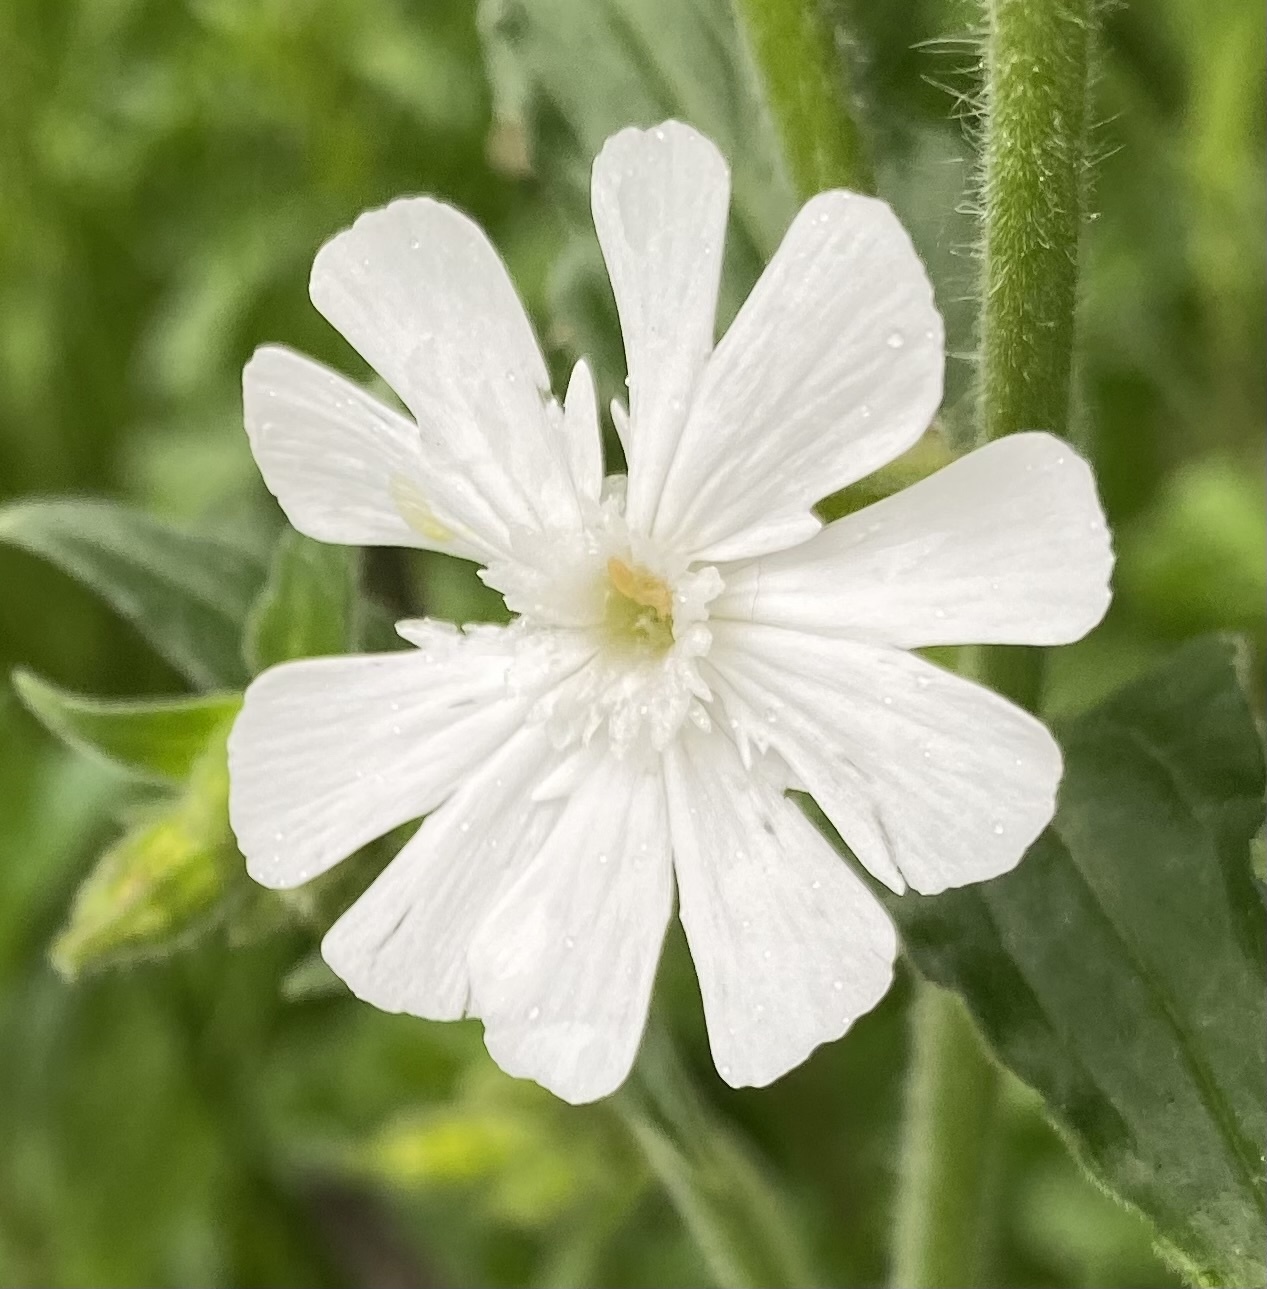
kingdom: Plantae
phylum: Tracheophyta
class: Magnoliopsida
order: Caryophyllales
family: Caryophyllaceae
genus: Silene
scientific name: Silene latifolia
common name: White campion
